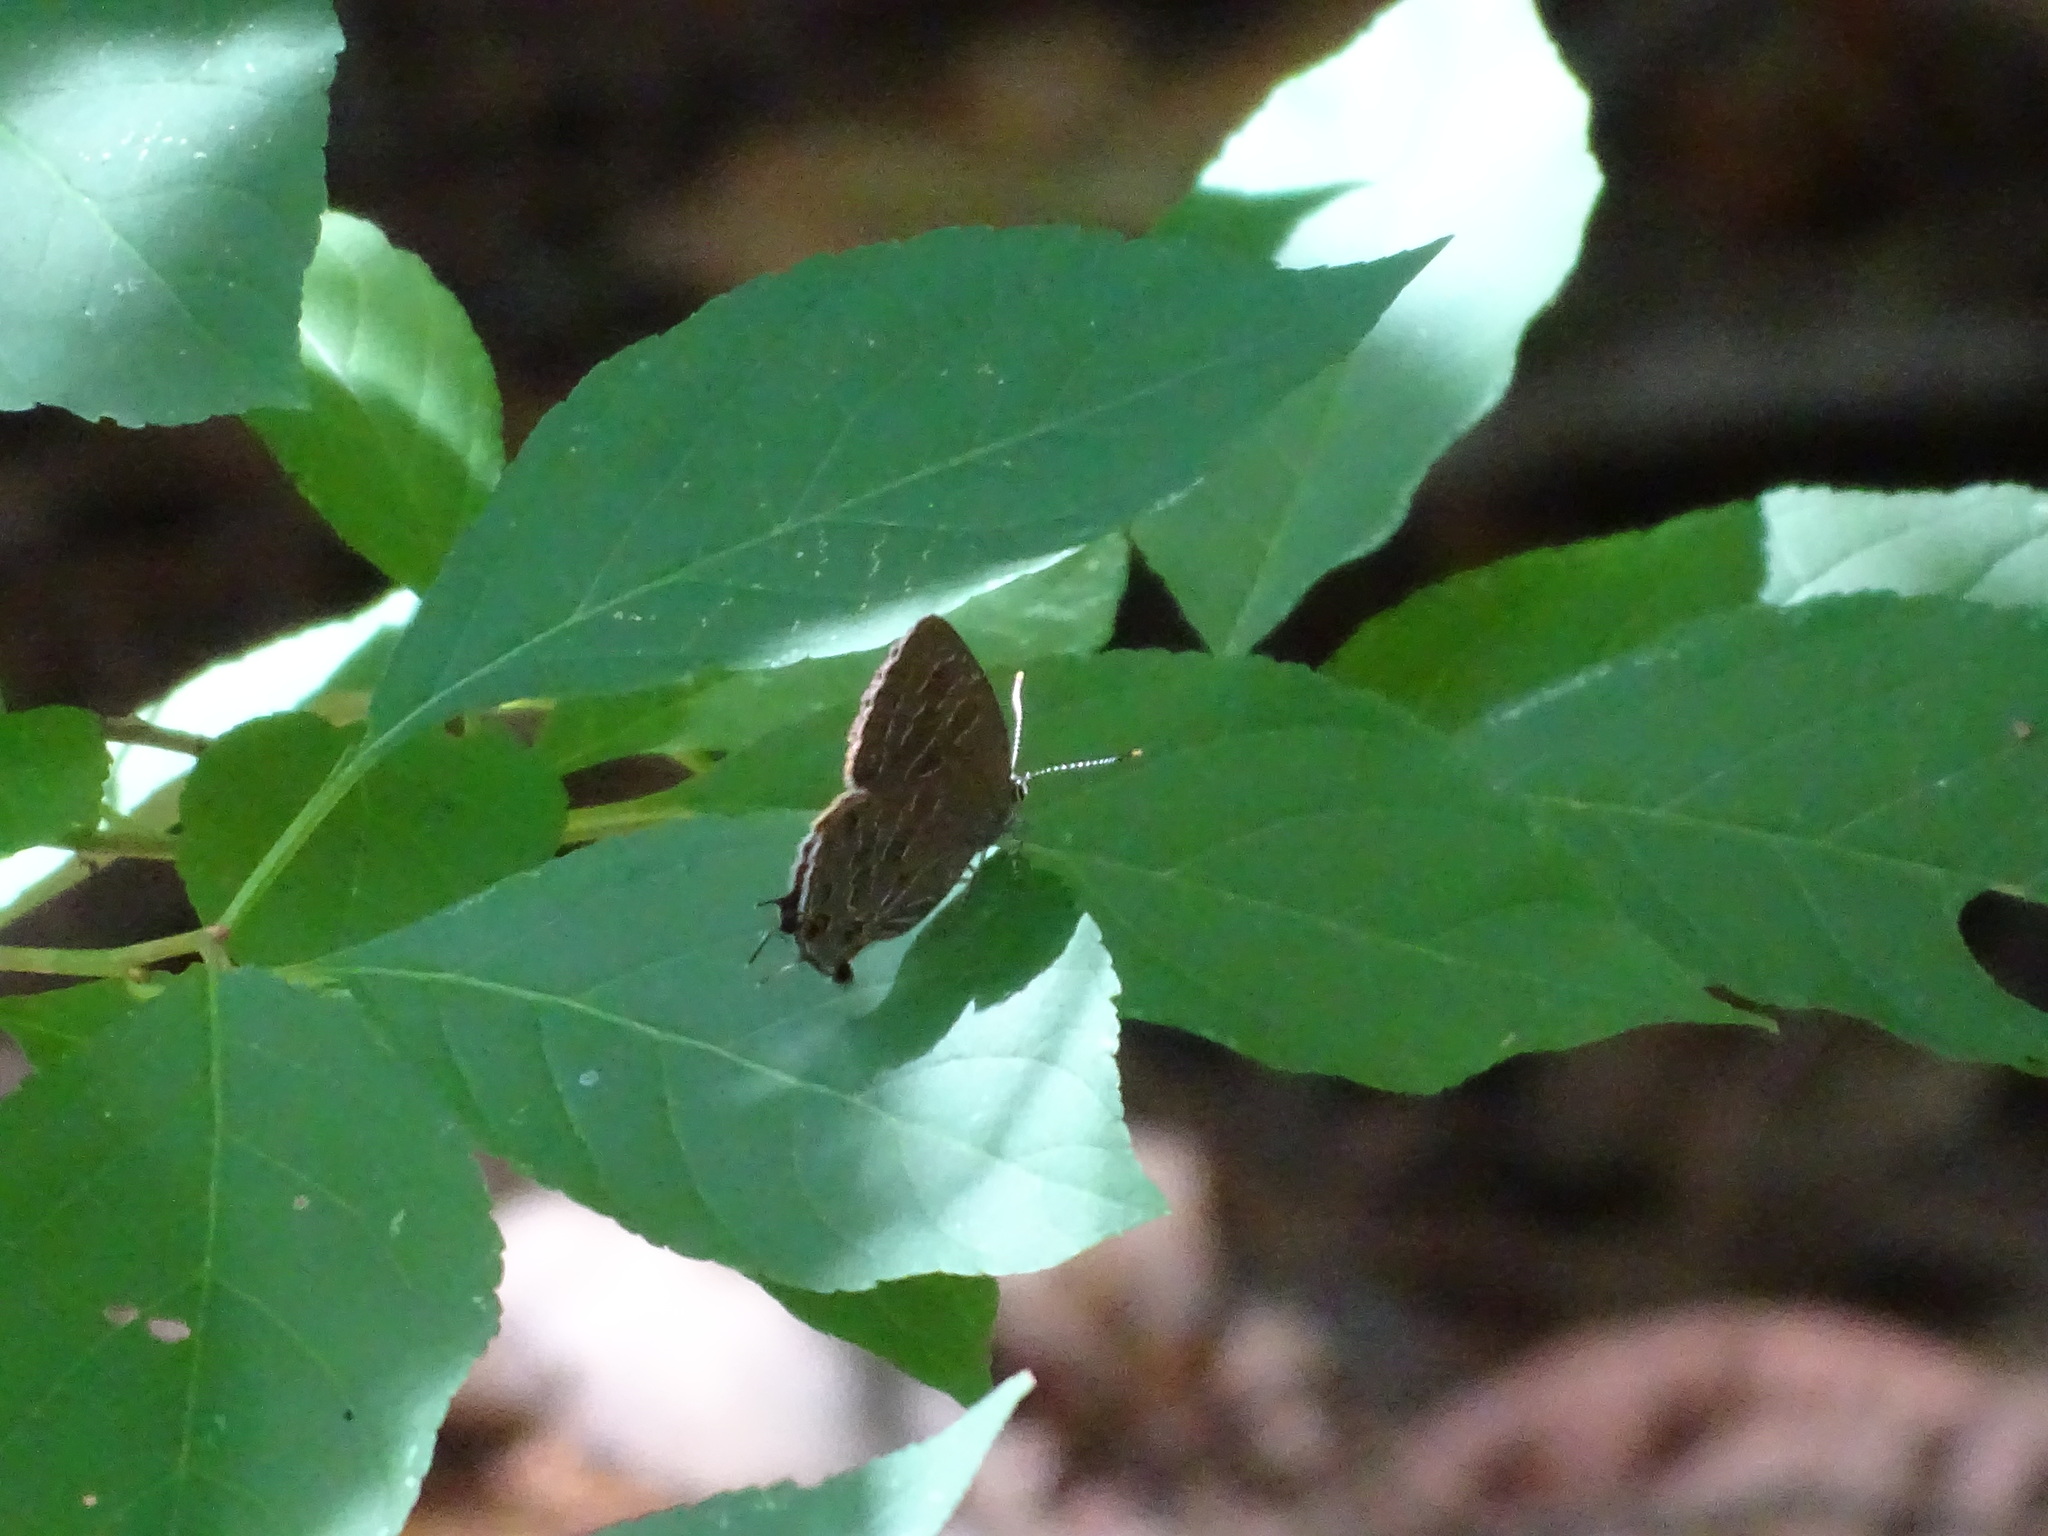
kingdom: Animalia
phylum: Arthropoda
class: Insecta
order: Lepidoptera
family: Lycaenidae
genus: Satyrium
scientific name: Satyrium liparops
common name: Striped hairstreak
